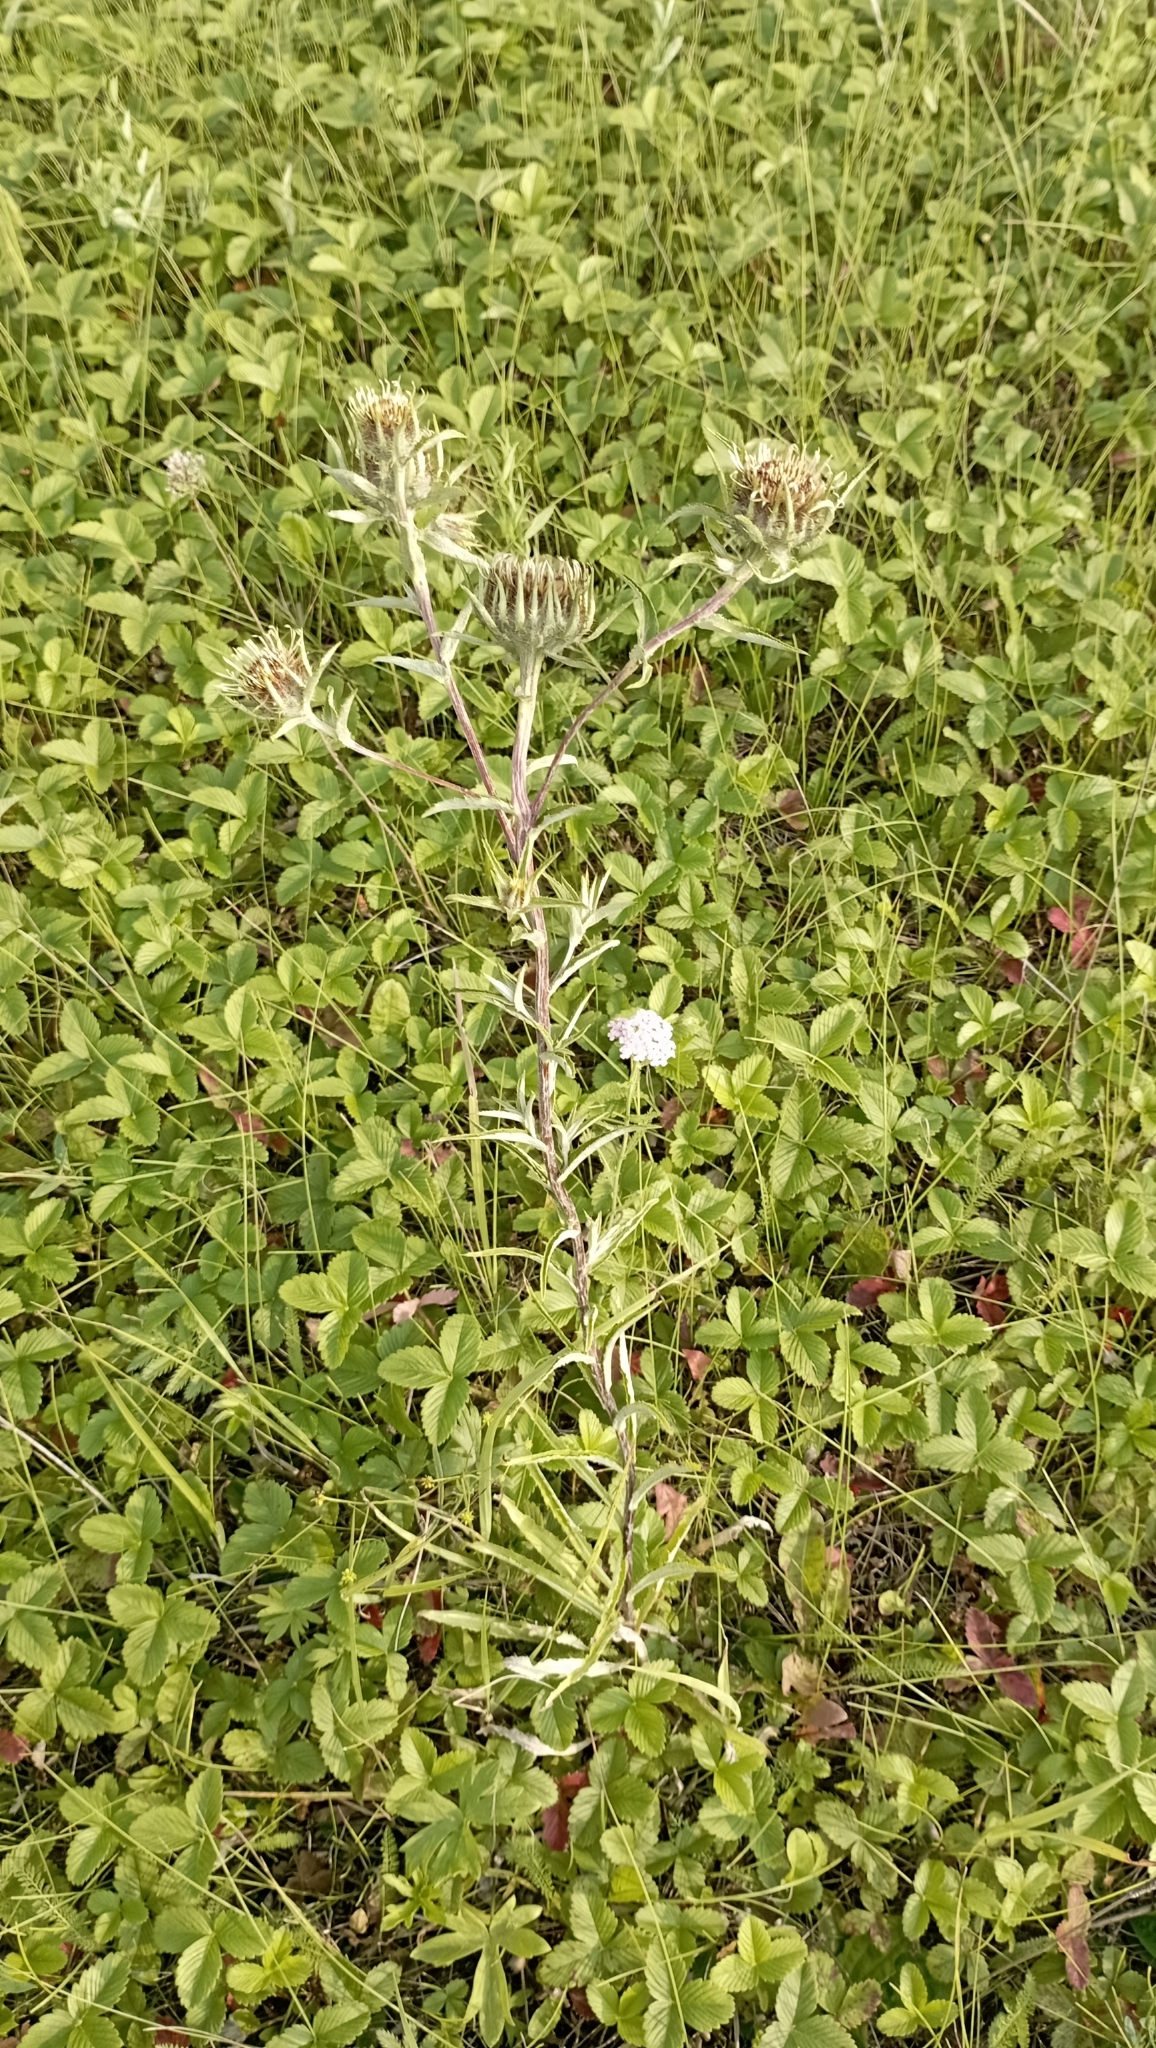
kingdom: Plantae
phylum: Tracheophyta
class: Magnoliopsida
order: Asterales
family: Asteraceae
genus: Carlina
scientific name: Carlina biebersteinii
